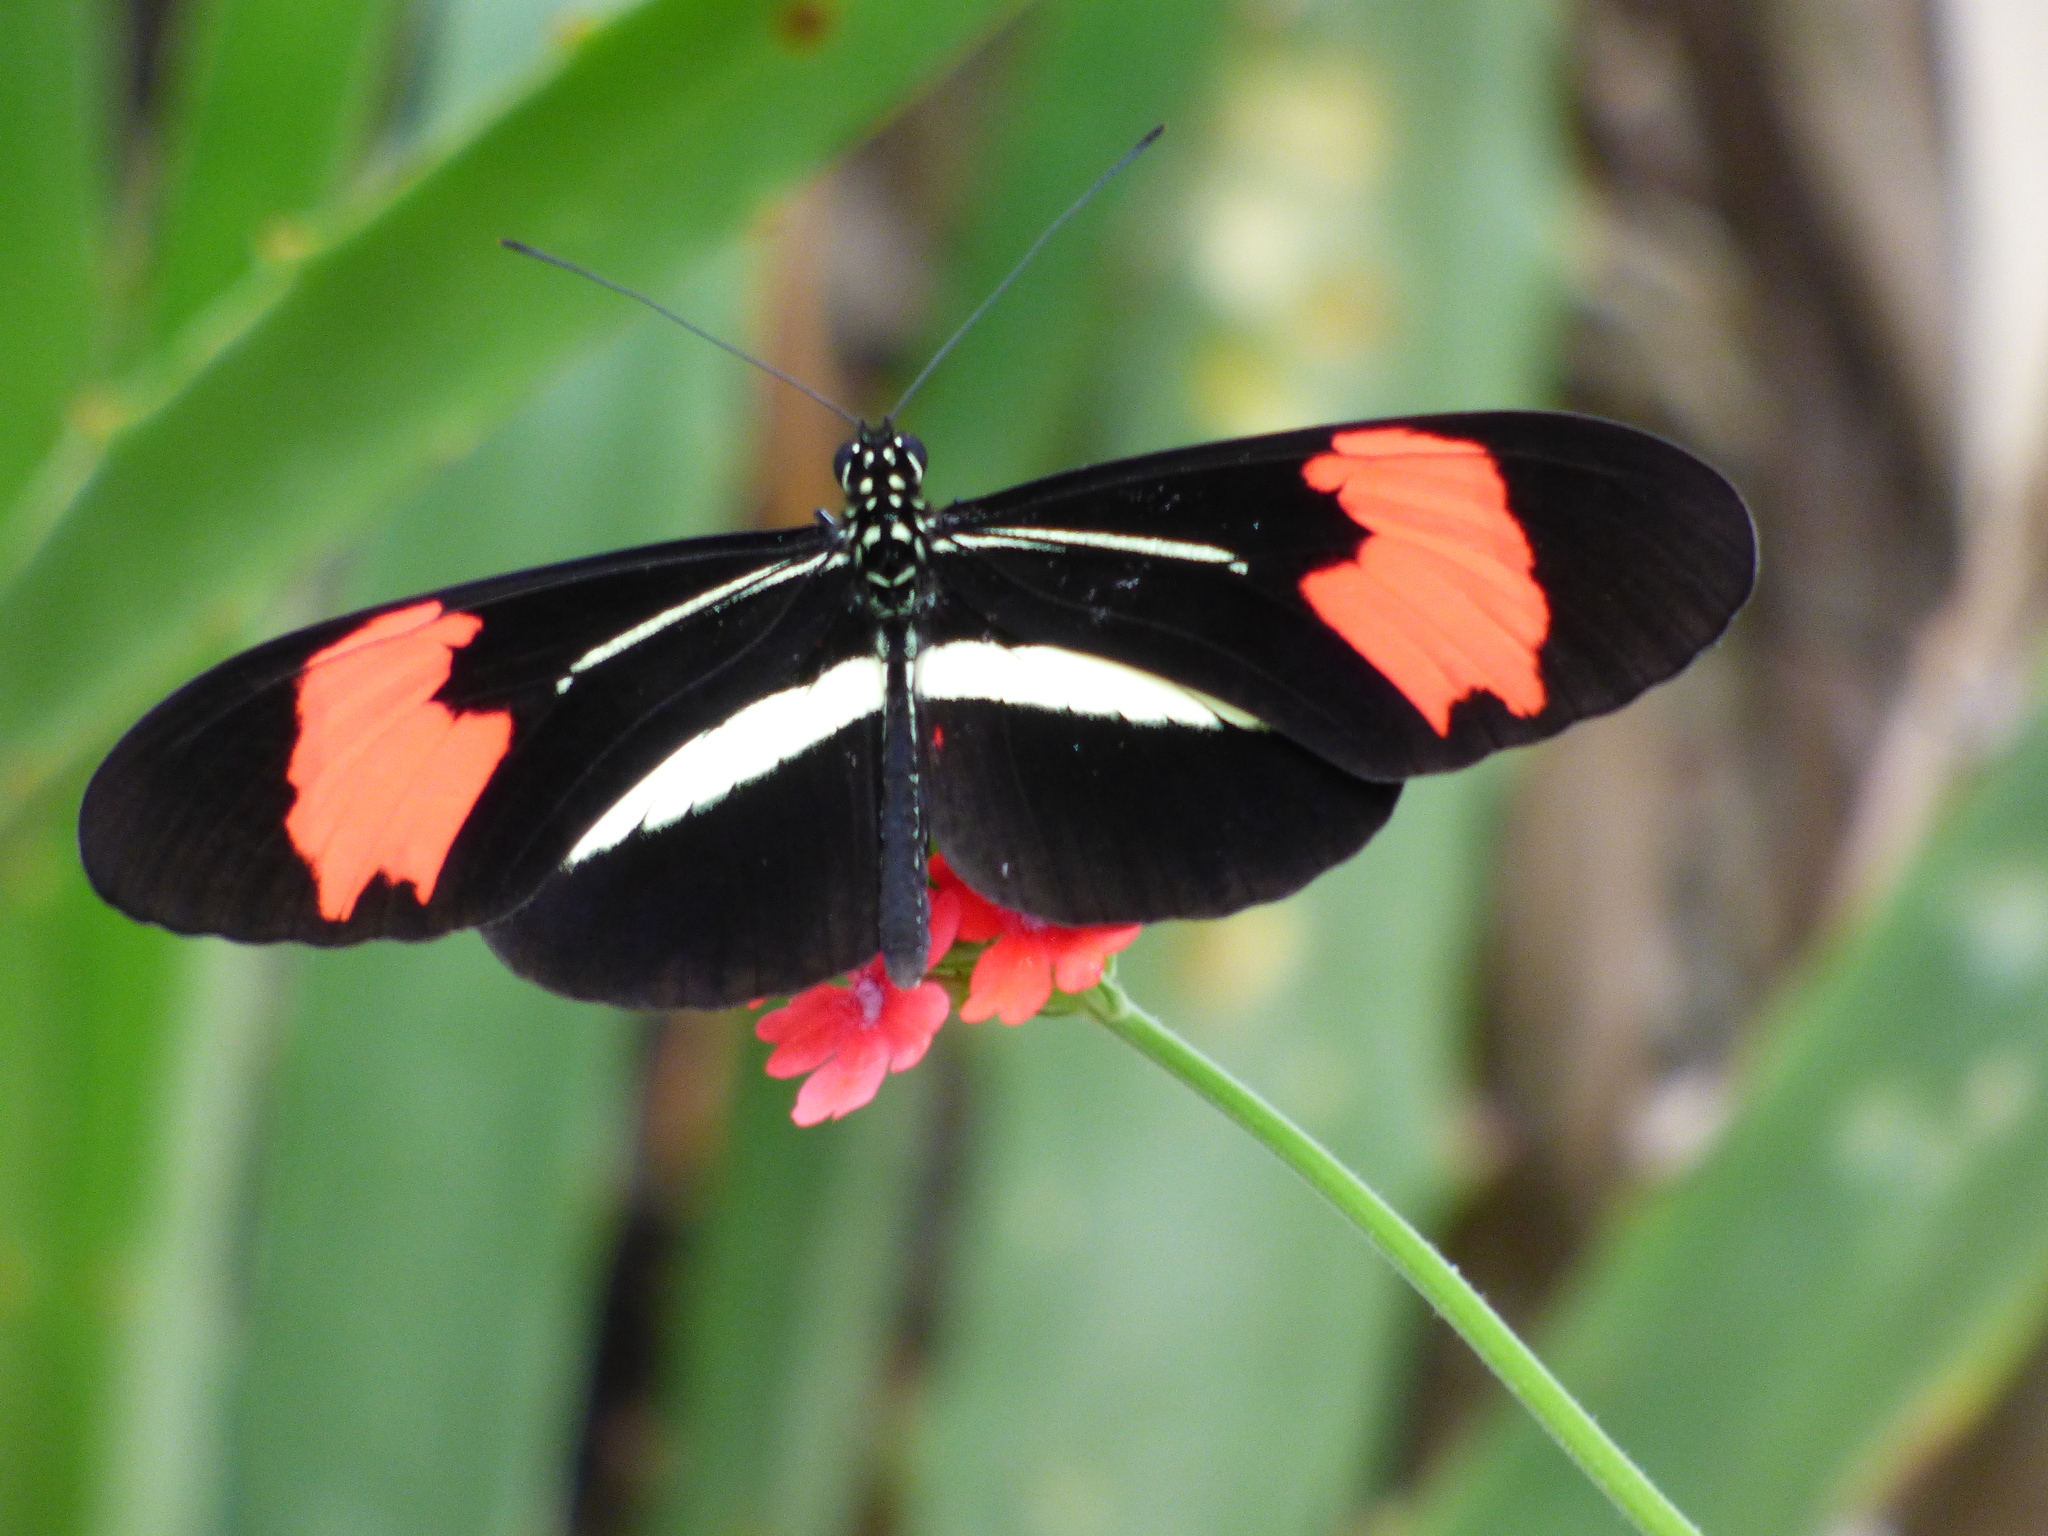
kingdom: Animalia
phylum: Arthropoda
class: Insecta
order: Lepidoptera
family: Nymphalidae
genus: Heliconius
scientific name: Heliconius erato
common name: Common patch longwing
